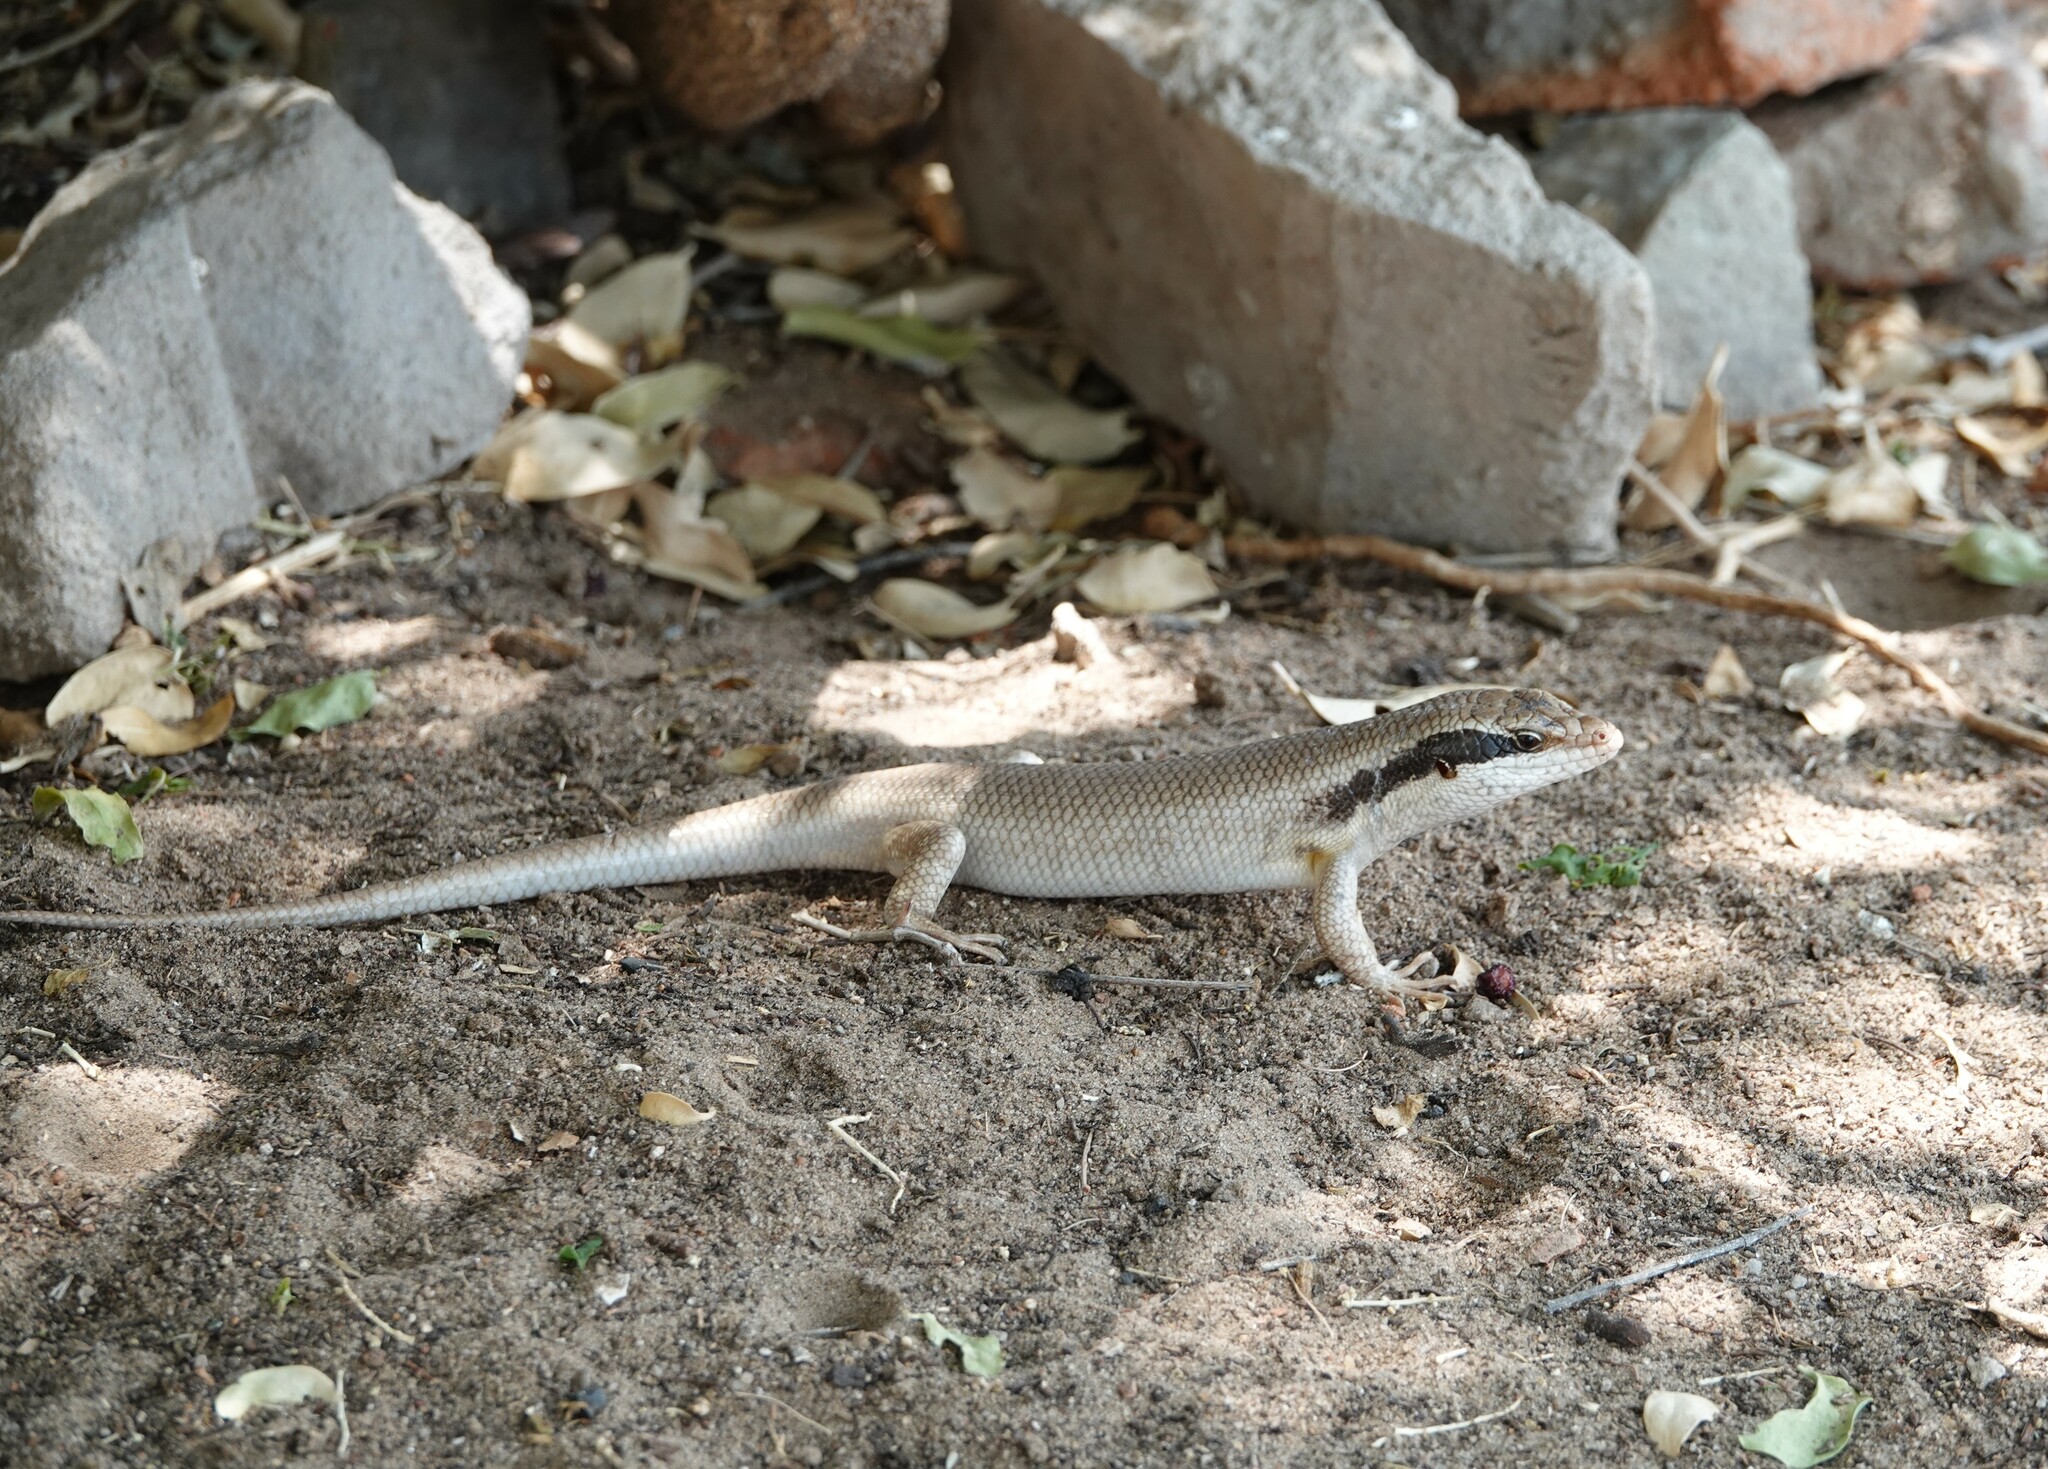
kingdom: Animalia
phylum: Chordata
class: Squamata
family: Scincidae
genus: Trachylepis
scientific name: Trachylepis binotata
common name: Bocage's mabuya
